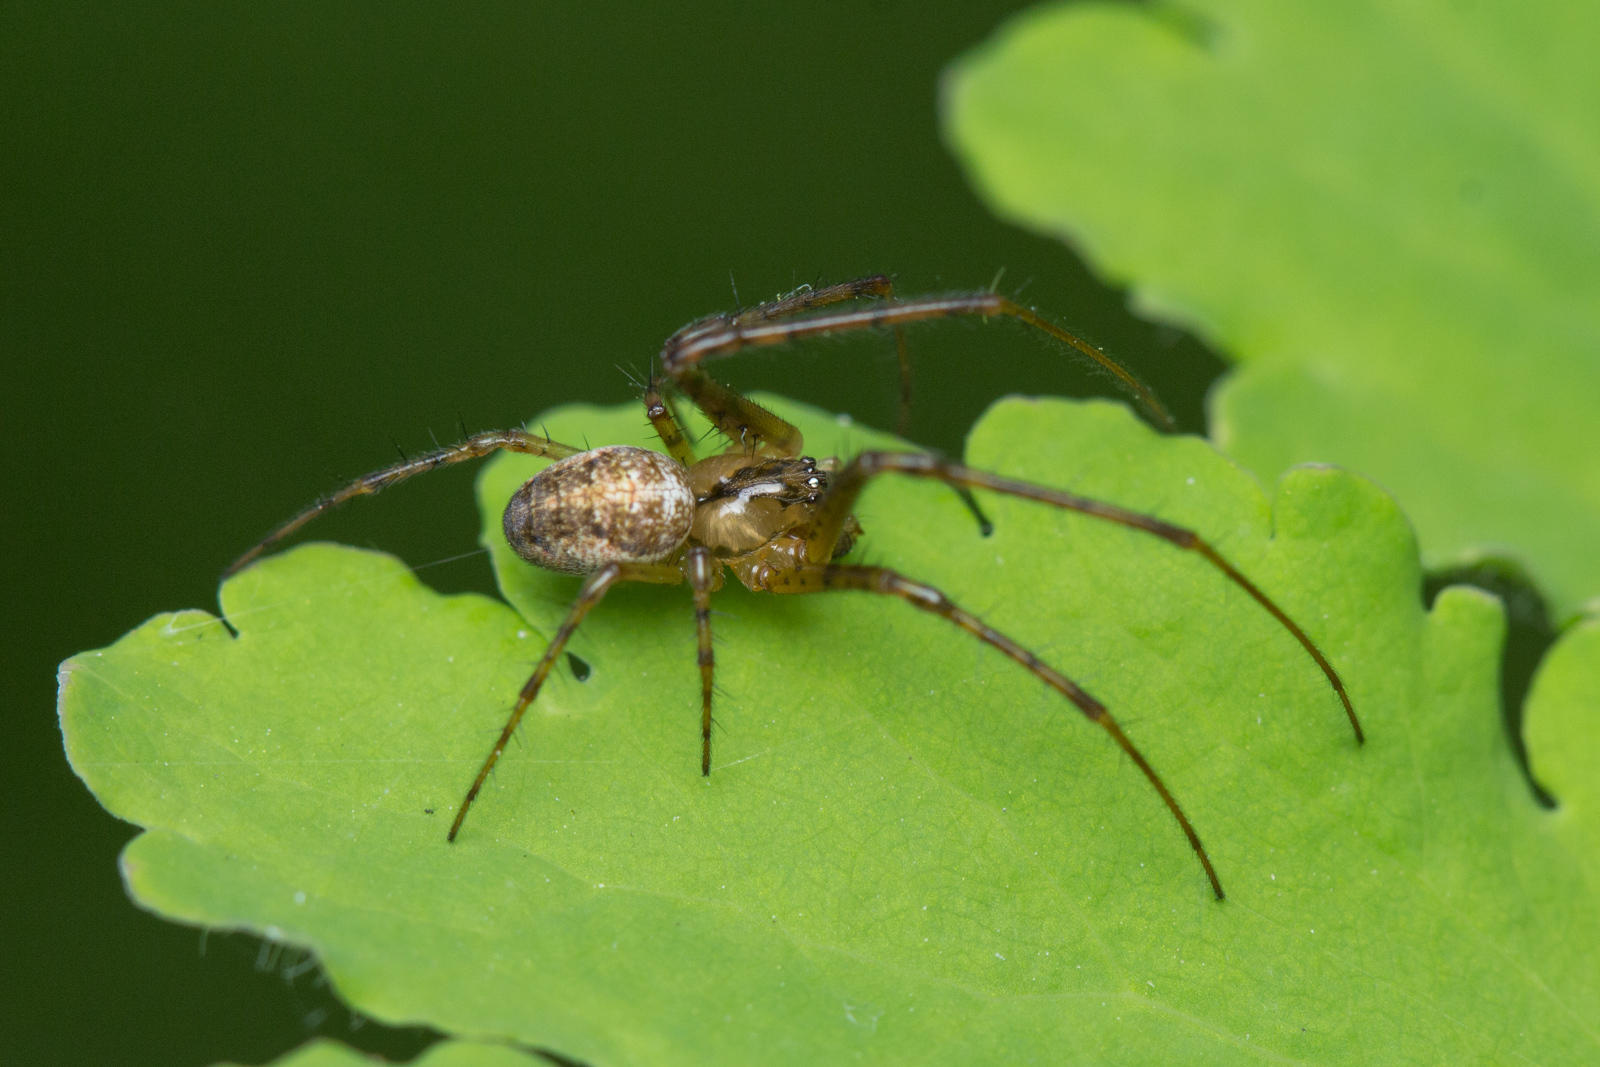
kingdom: Animalia
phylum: Arthropoda
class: Arachnida
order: Araneae
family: Tetragnathidae
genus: Metellina
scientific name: Metellina mengei
